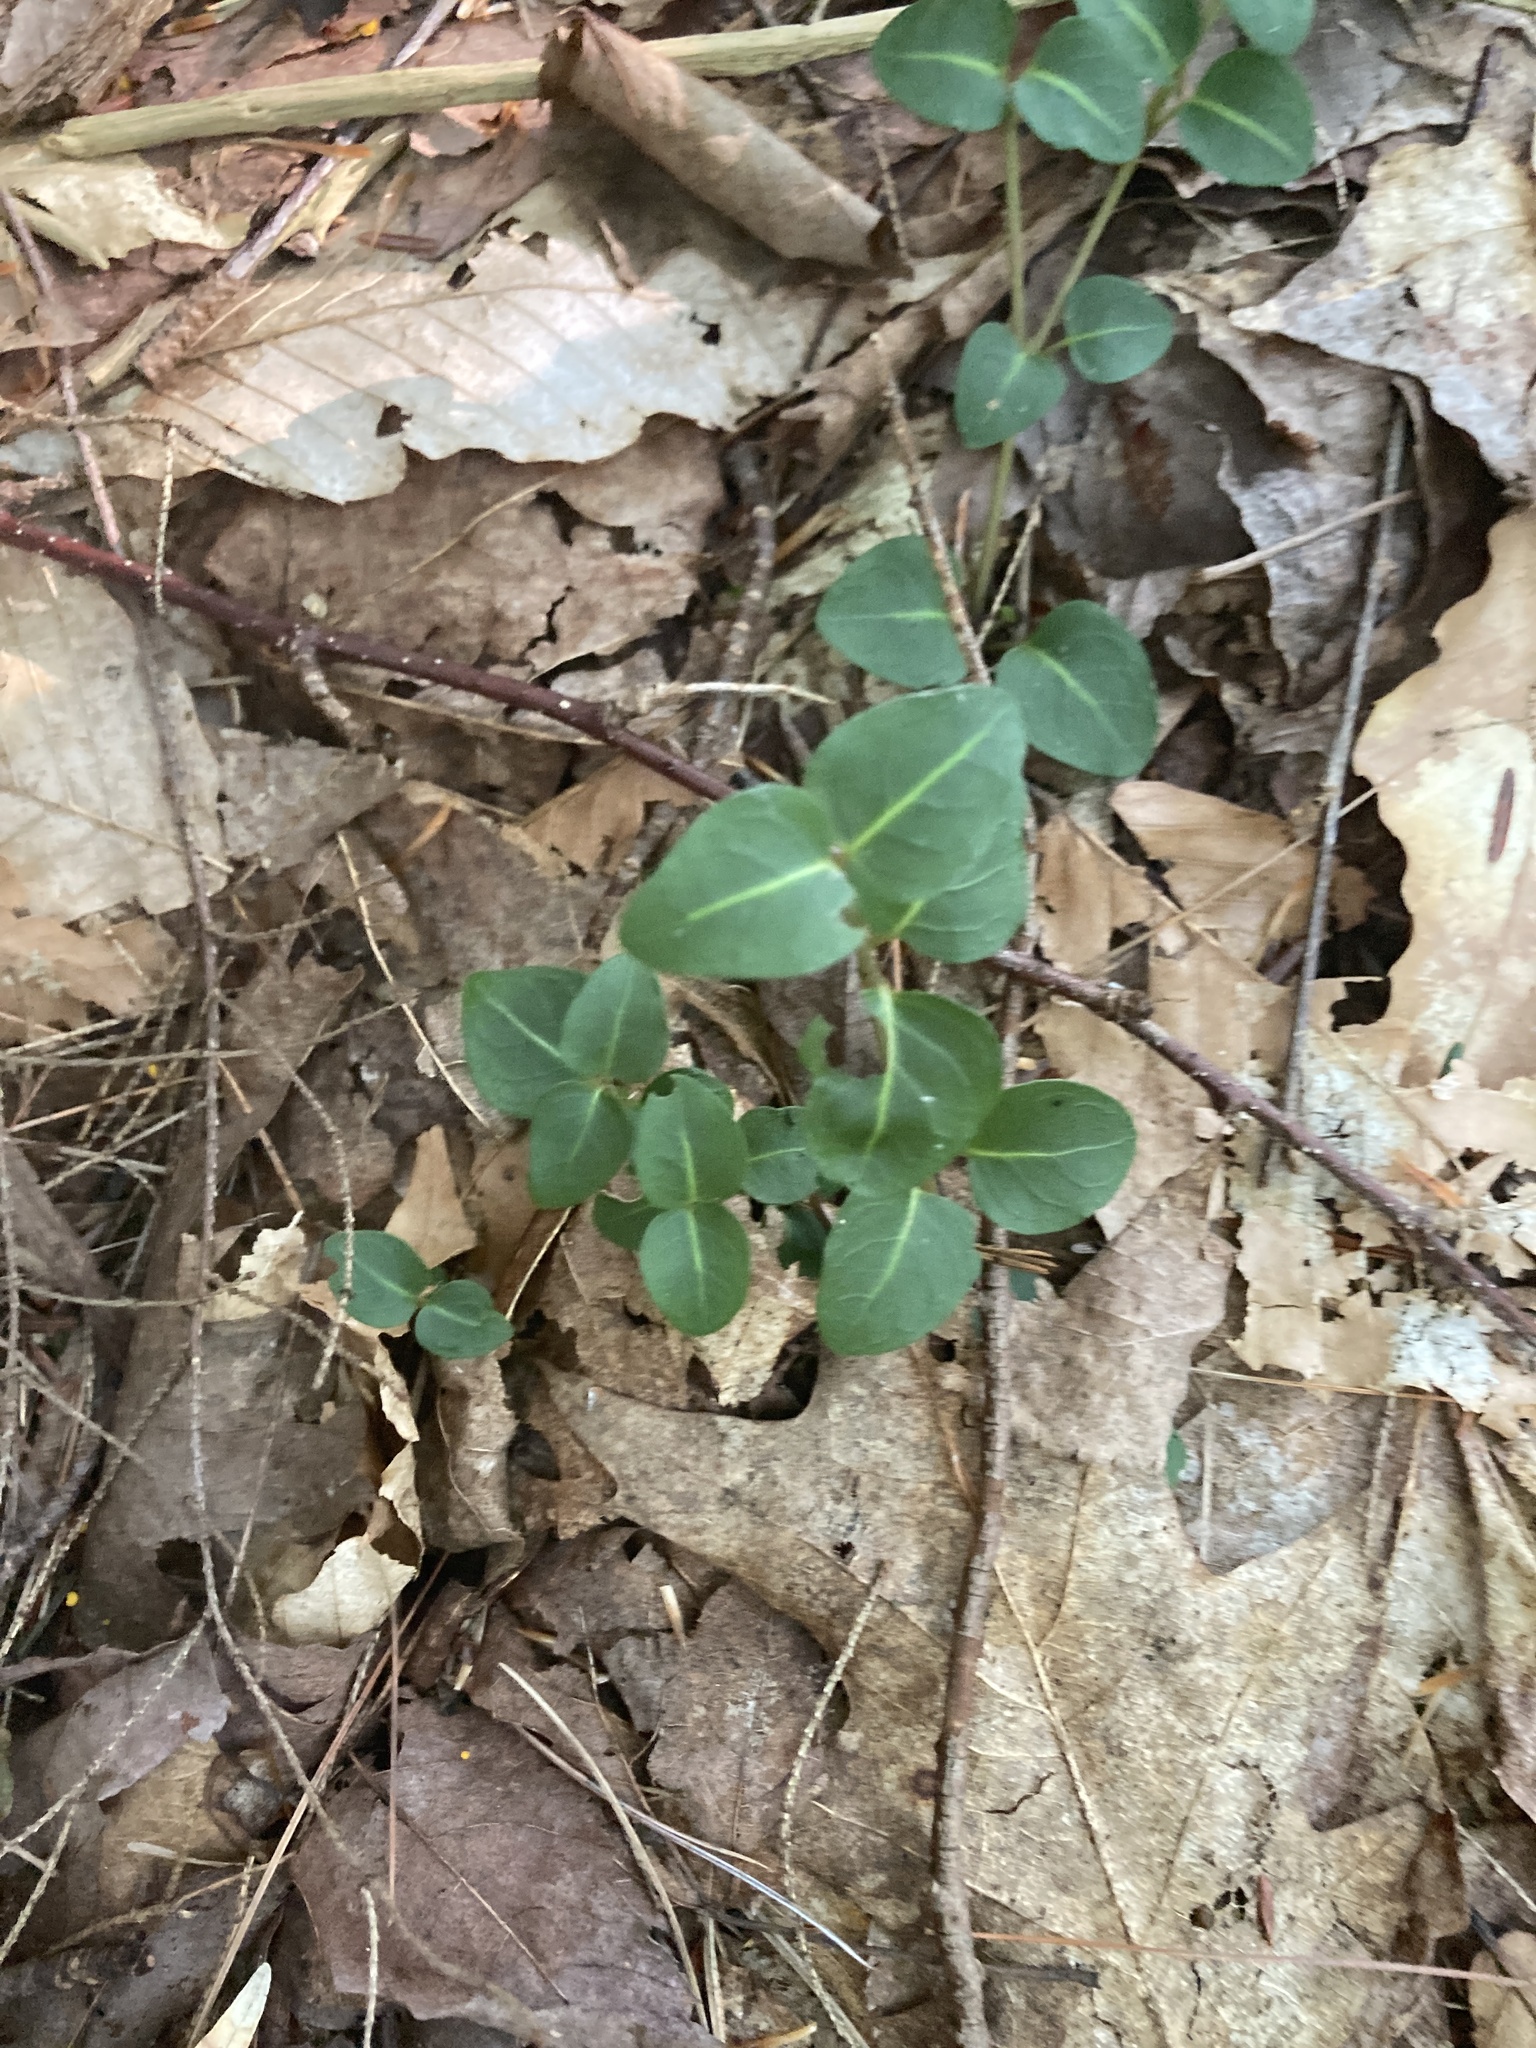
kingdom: Plantae
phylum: Tracheophyta
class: Magnoliopsida
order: Gentianales
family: Rubiaceae
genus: Mitchella
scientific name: Mitchella repens
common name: Partridge-berry
